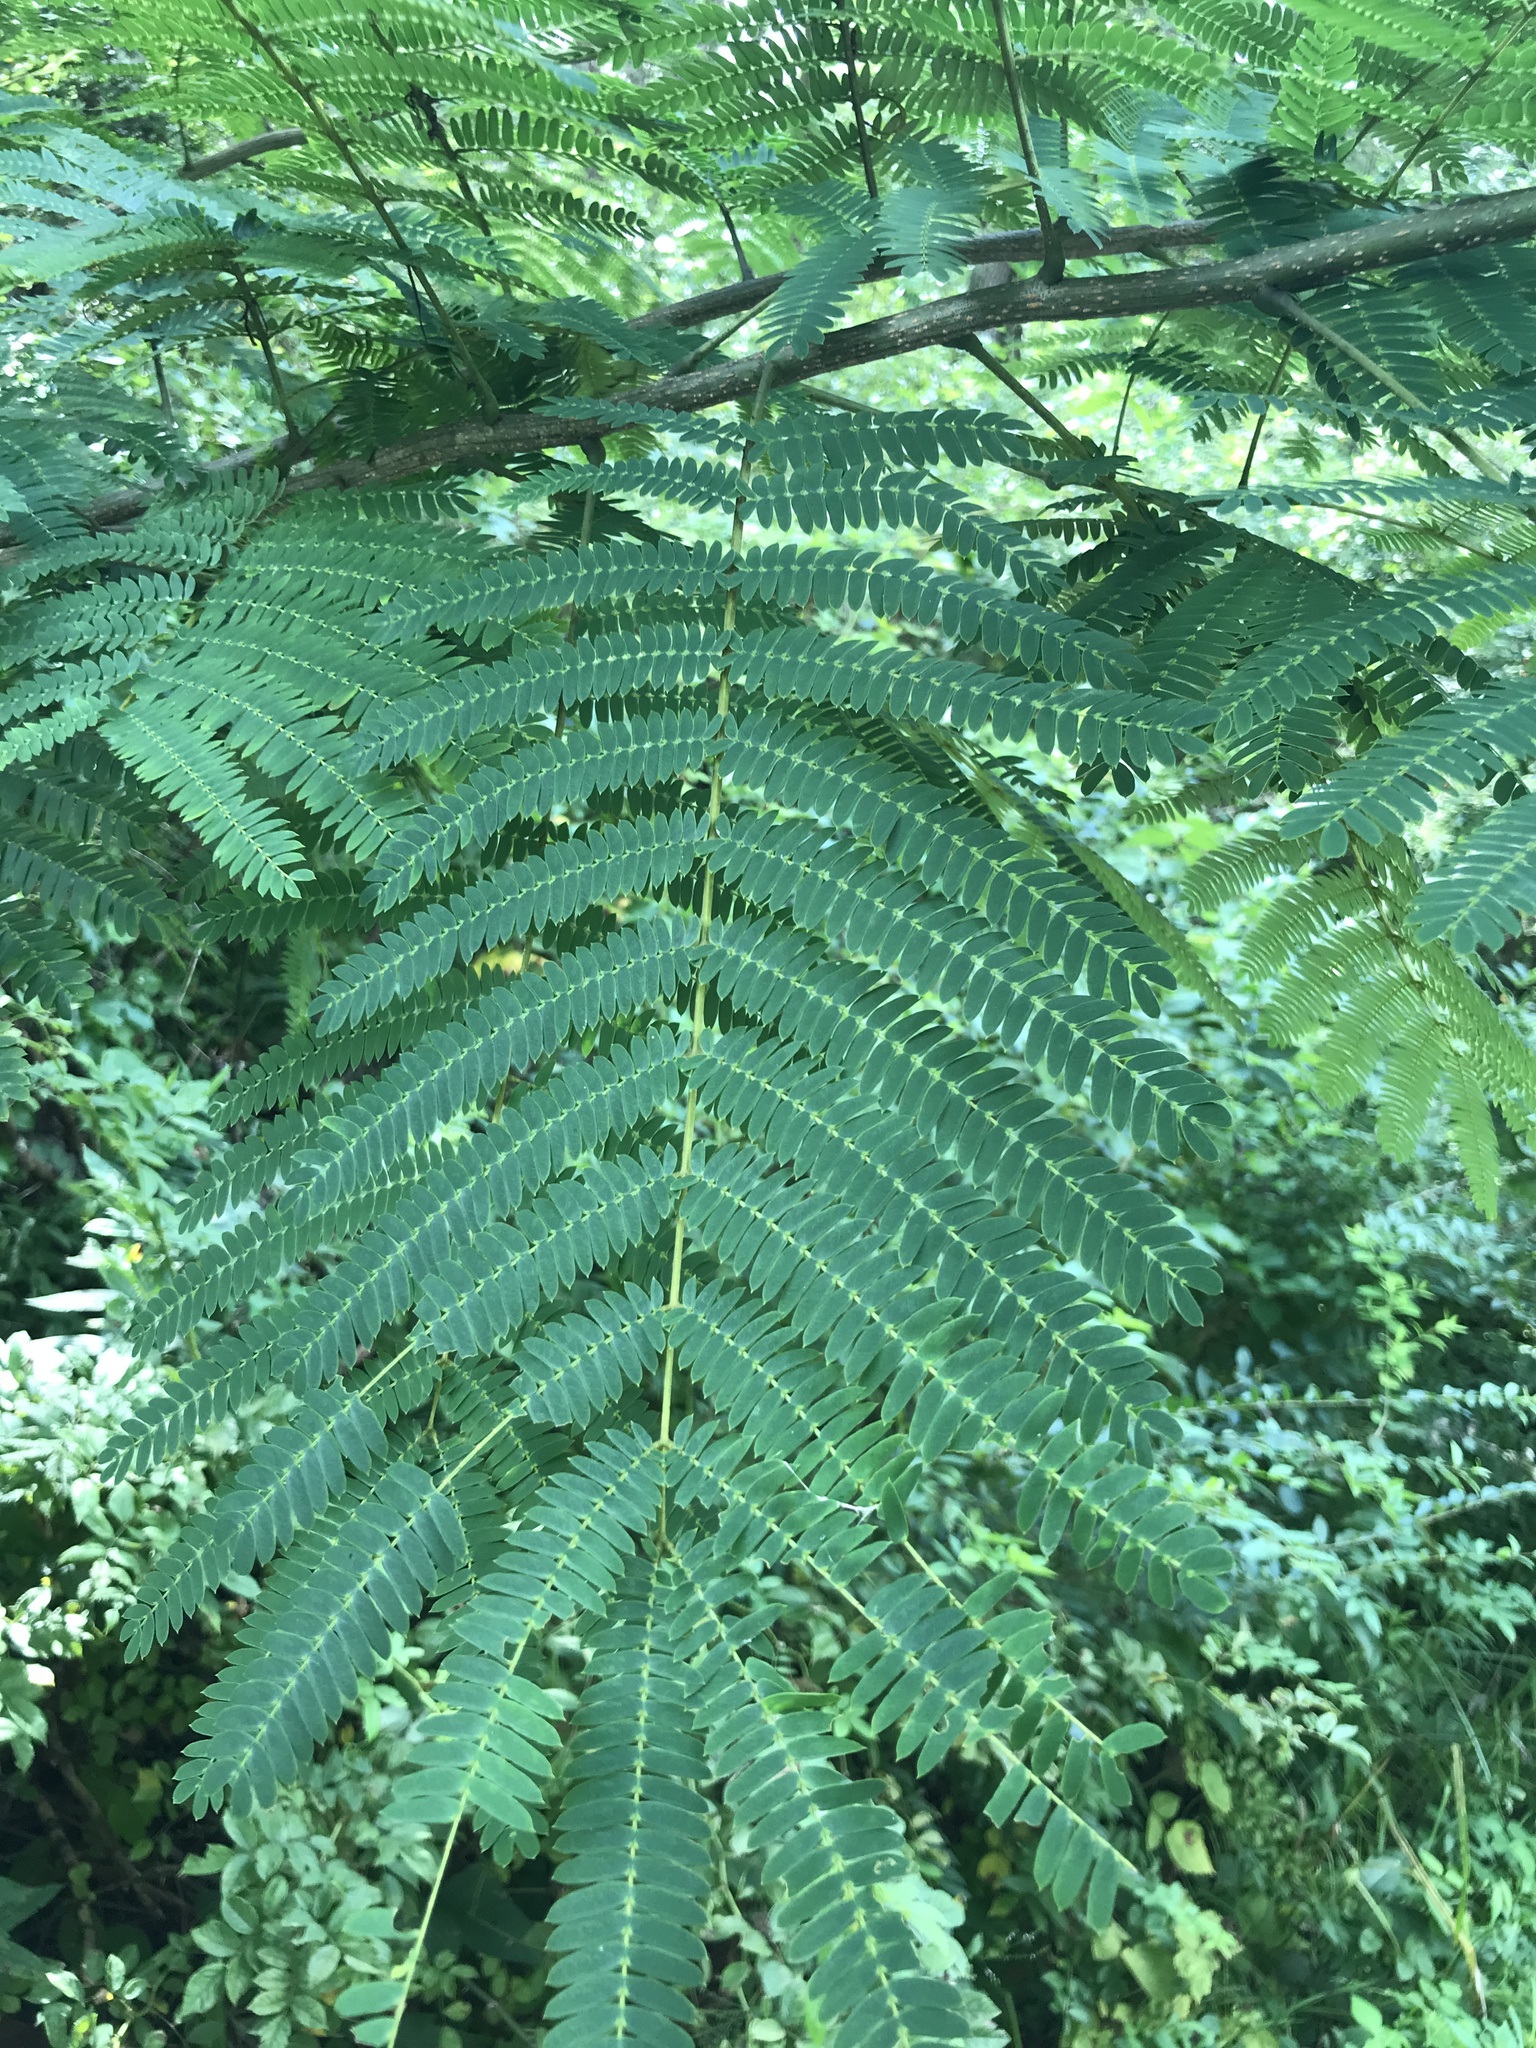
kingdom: Plantae
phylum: Tracheophyta
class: Magnoliopsida
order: Fabales
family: Fabaceae
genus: Albizia
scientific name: Albizia julibrissin
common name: Silktree
